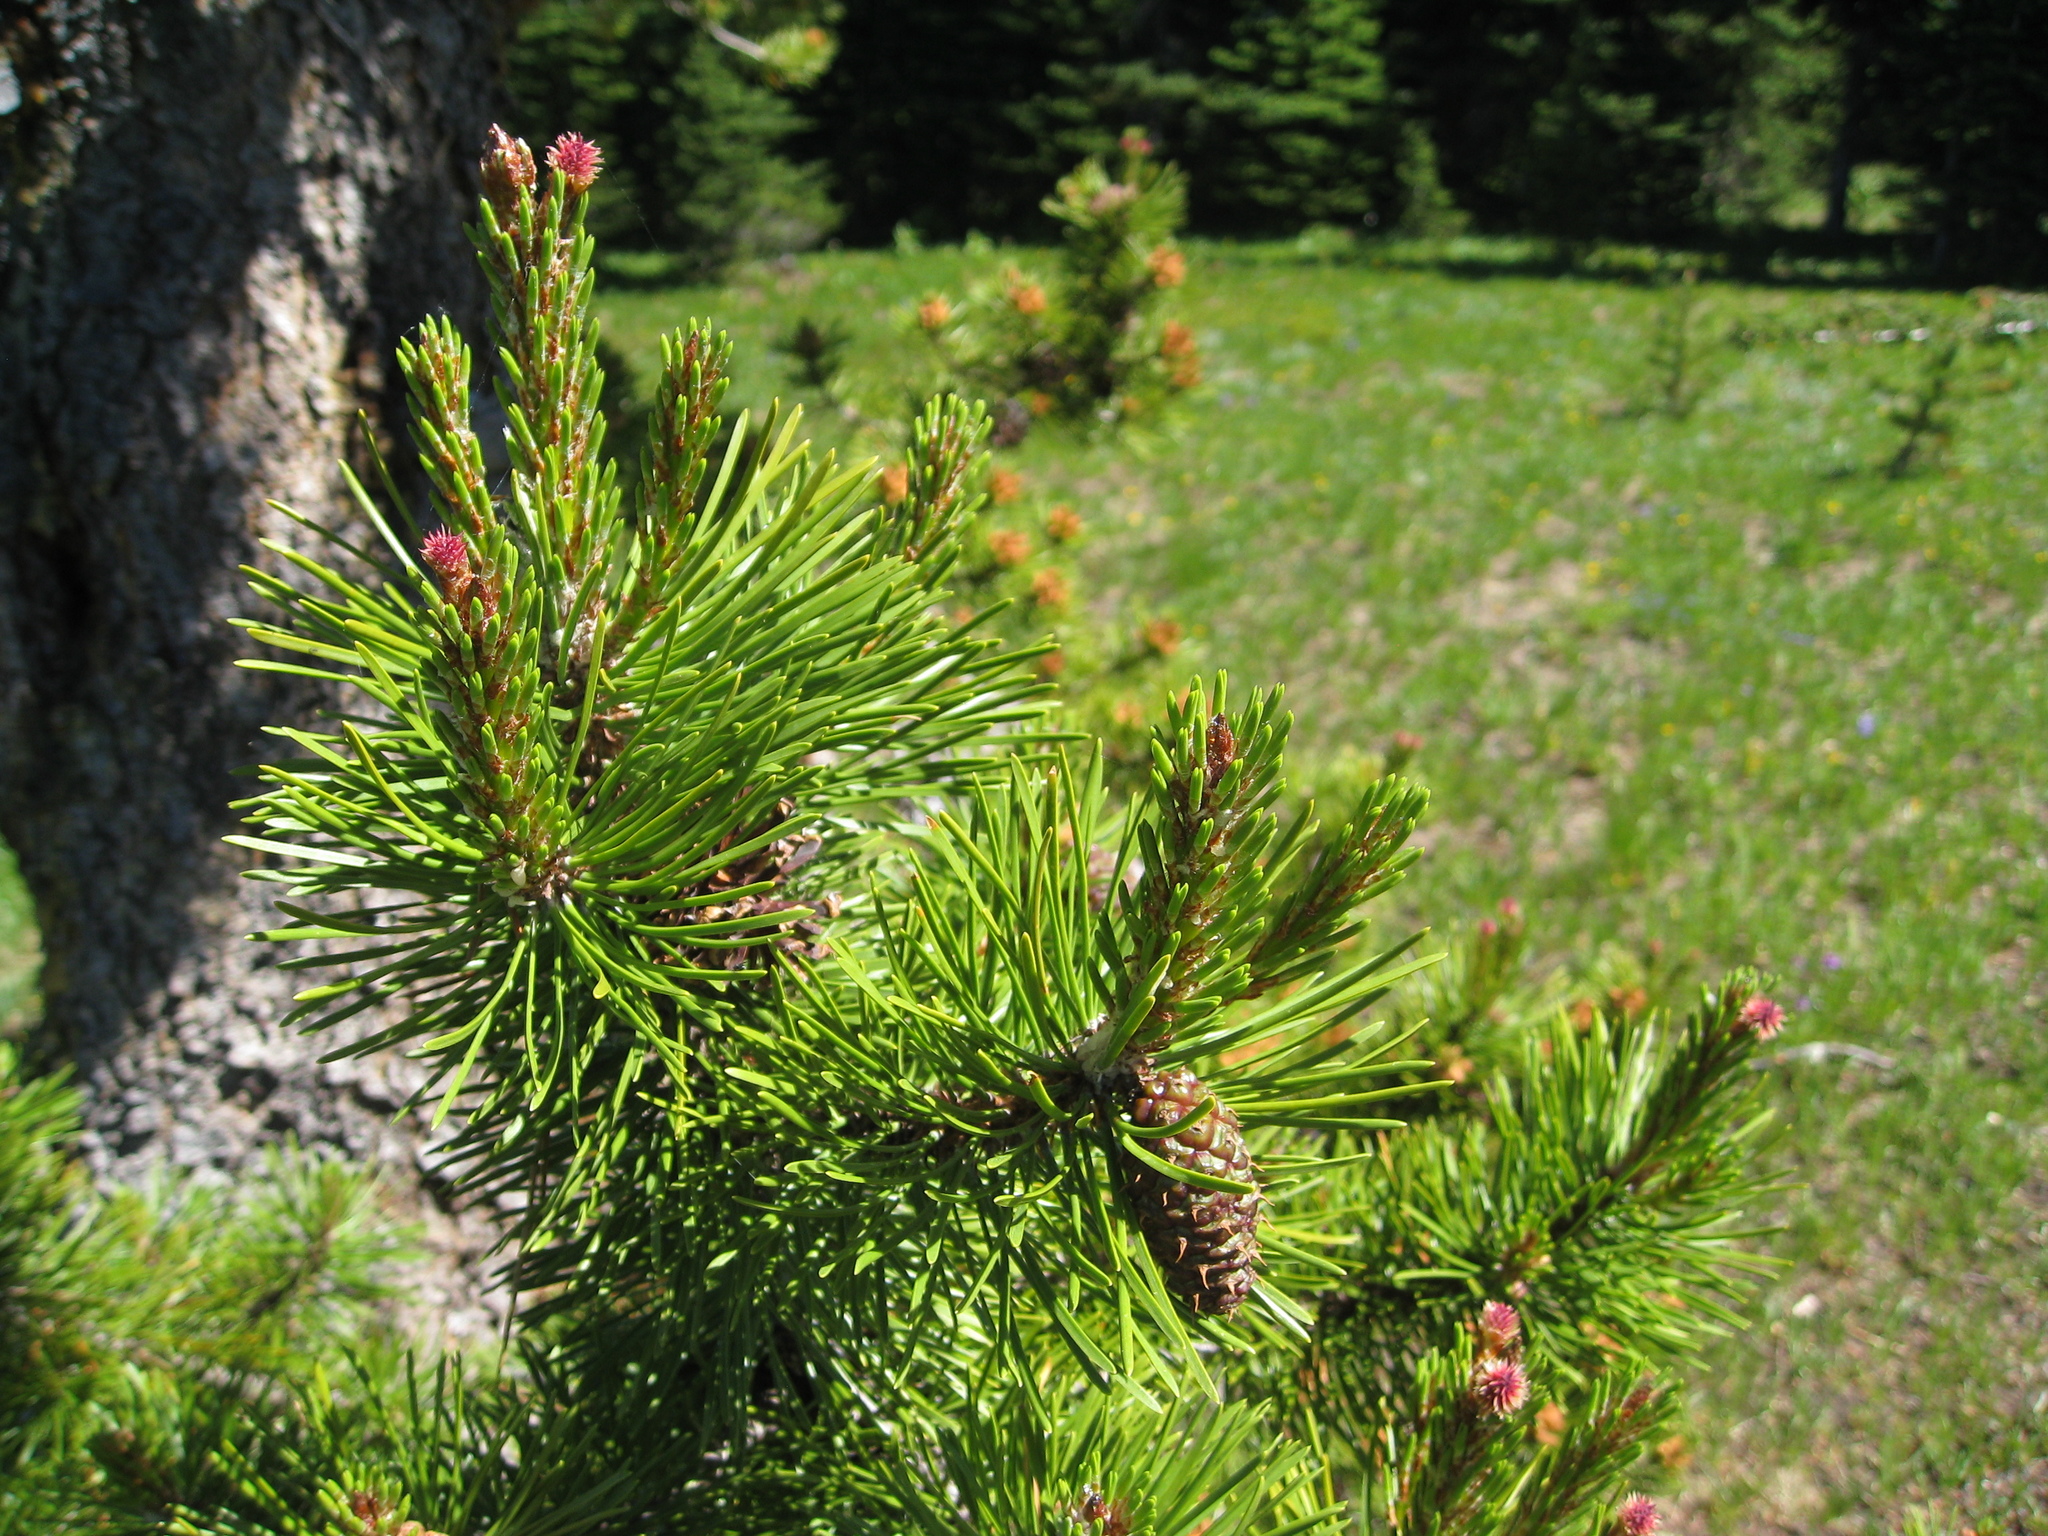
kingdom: Plantae
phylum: Tracheophyta
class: Pinopsida
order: Pinales
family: Pinaceae
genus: Pinus
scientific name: Pinus contorta
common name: Lodgepole pine
